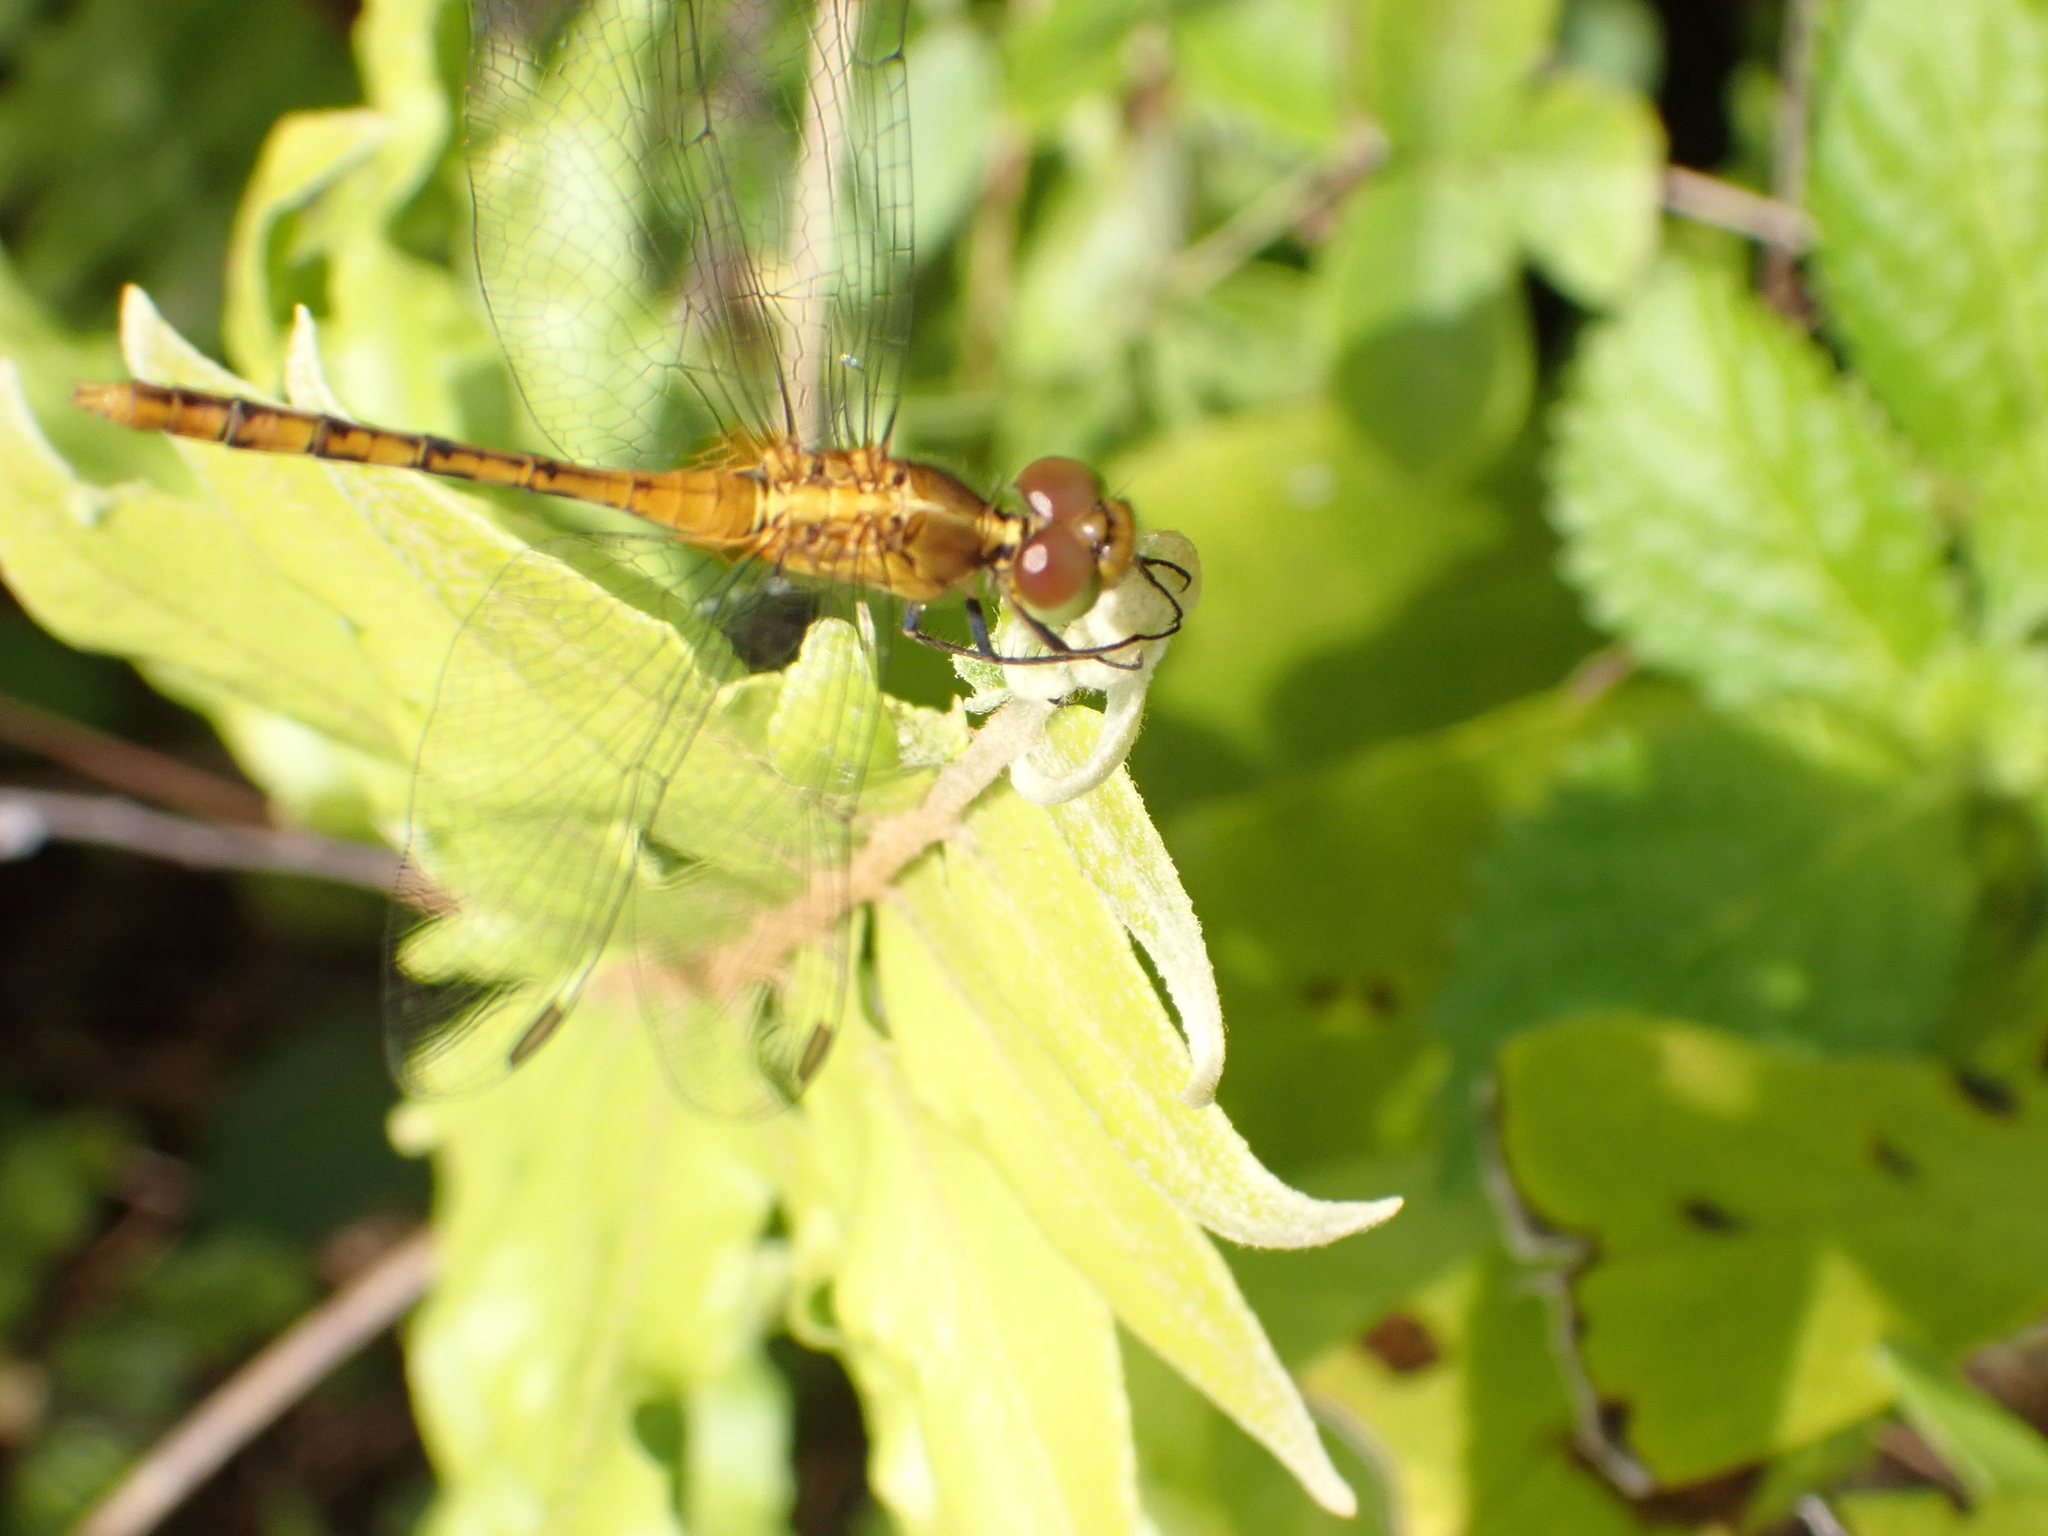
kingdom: Animalia
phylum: Arthropoda
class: Insecta
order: Odonata
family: Libellulidae
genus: Diplacodes
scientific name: Diplacodes bipunctata
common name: Red percher dragonfly
